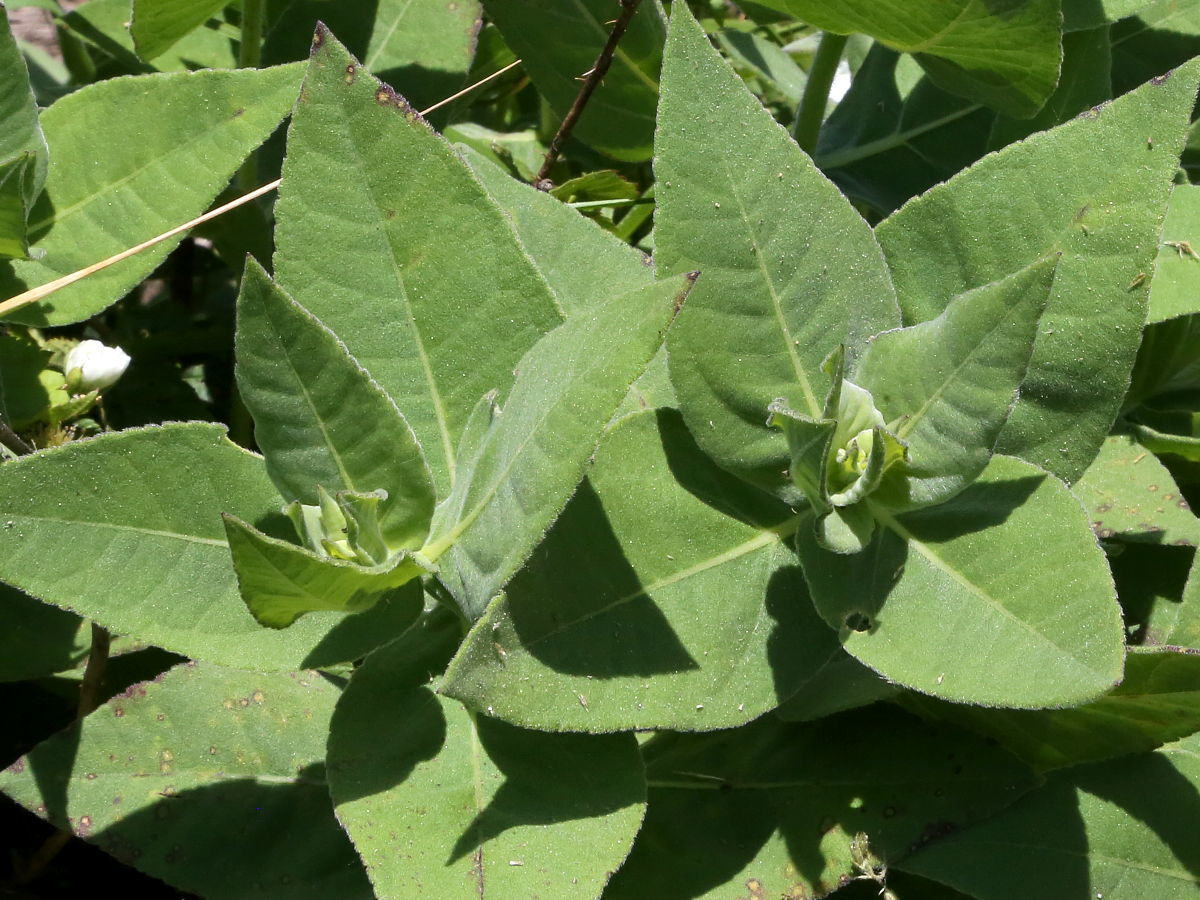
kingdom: Plantae
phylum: Tracheophyta
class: Magnoliopsida
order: Asterales
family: Asteraceae
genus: Helianthus
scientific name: Helianthus mollis
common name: Ashy sunflower
